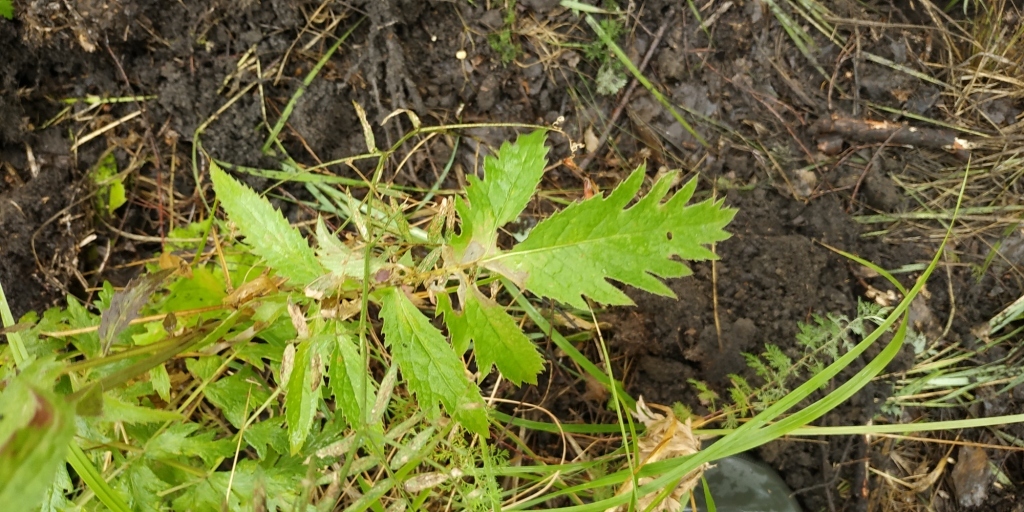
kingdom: Plantae
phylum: Tracheophyta
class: Magnoliopsida
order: Asterales
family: Asteraceae
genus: Serratula
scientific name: Serratula coronata
